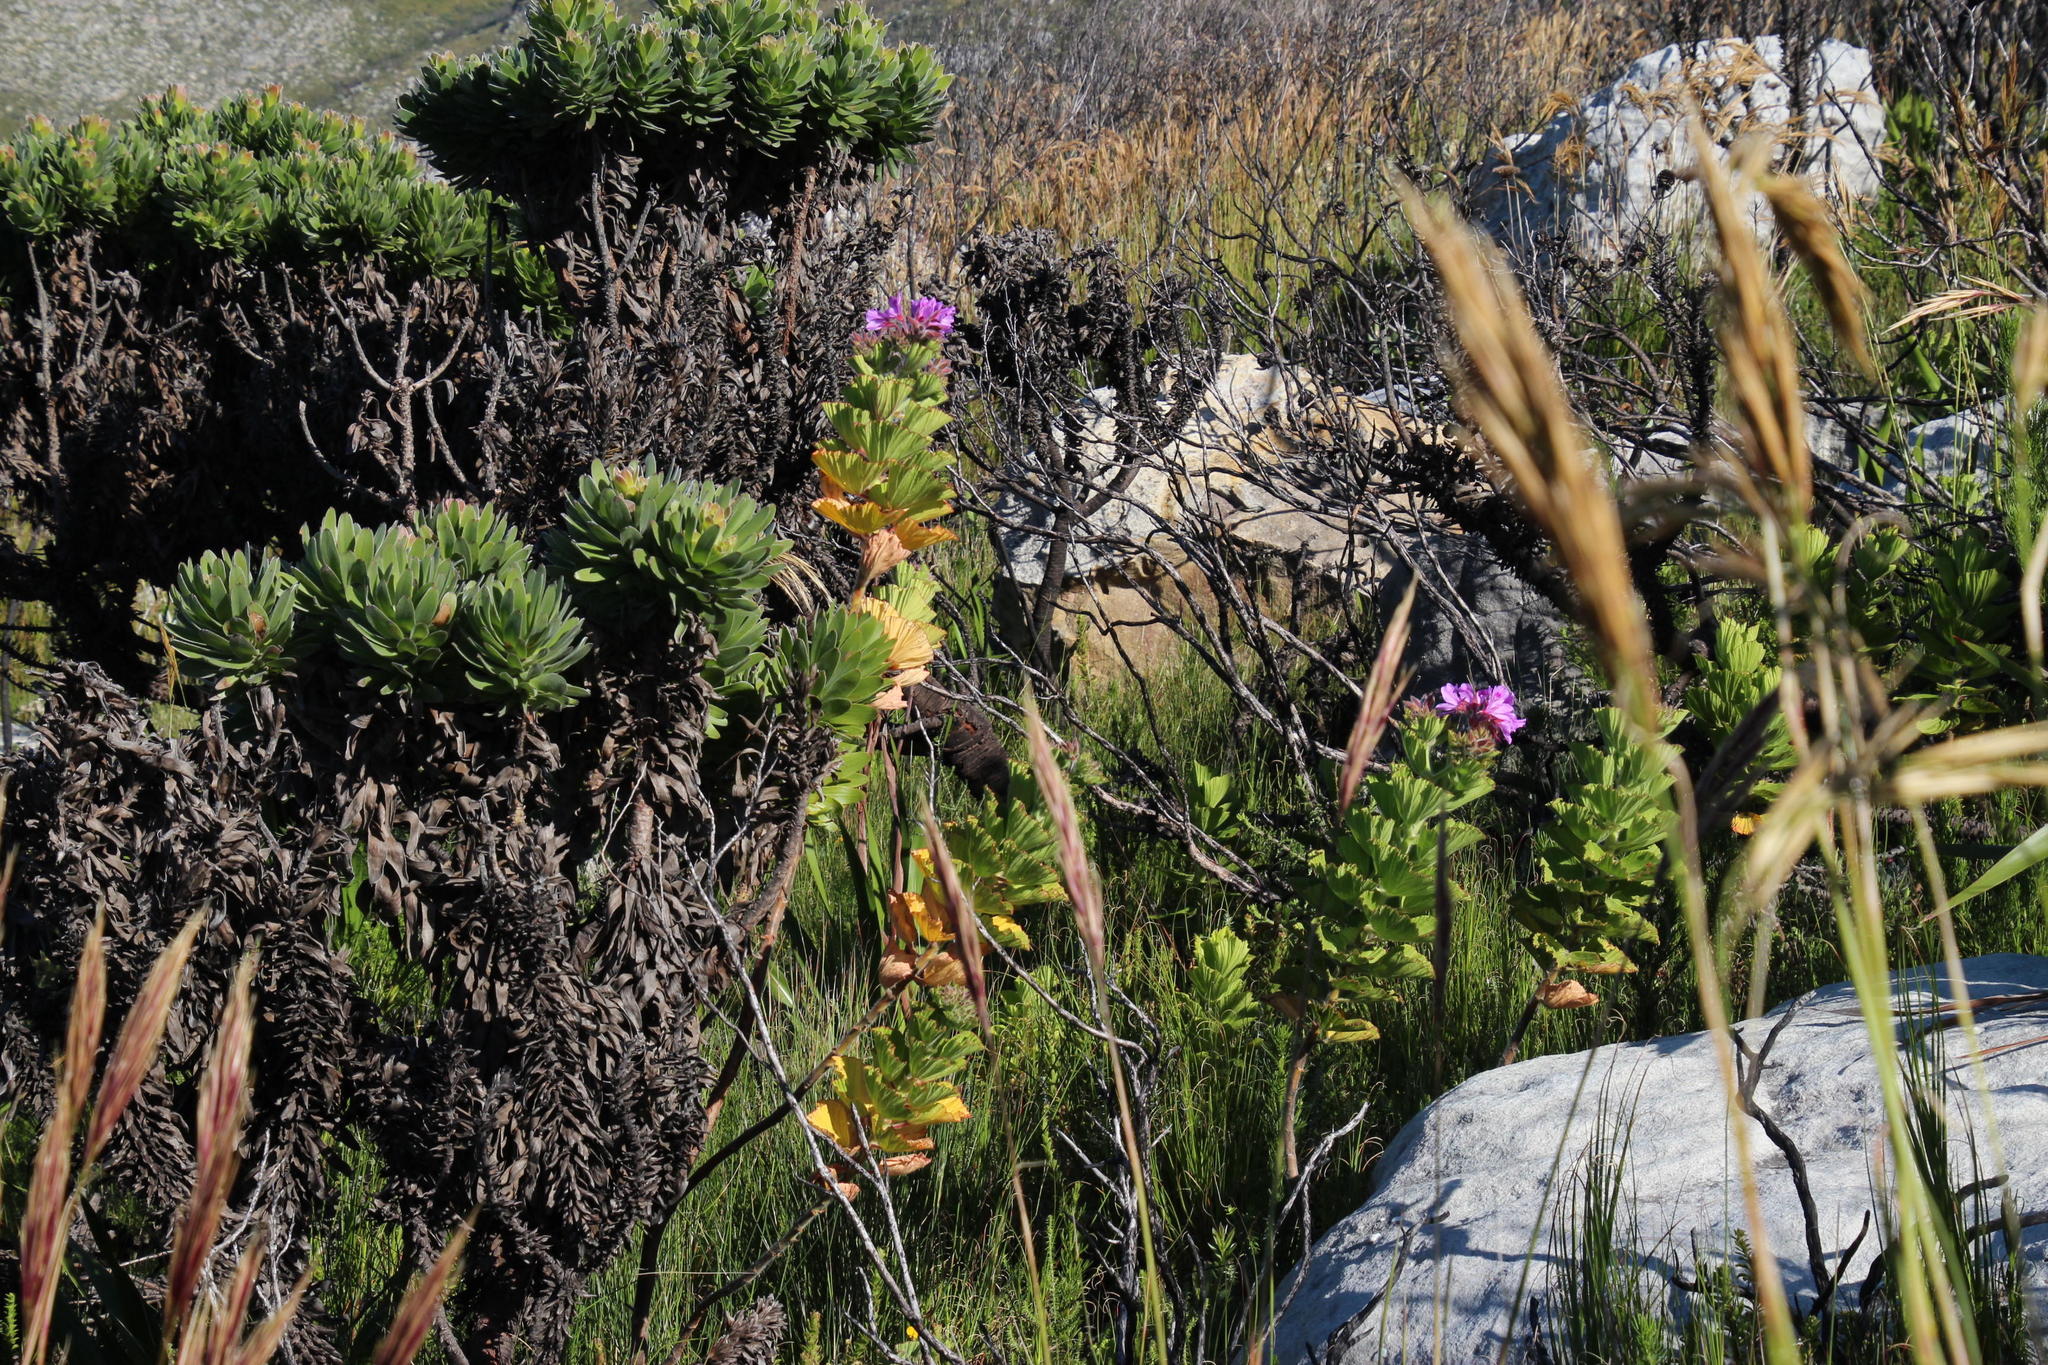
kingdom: Plantae
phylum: Tracheophyta
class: Magnoliopsida
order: Geraniales
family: Geraniaceae
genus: Pelargonium
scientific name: Pelargonium cucullatum
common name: Tree pelargonium
